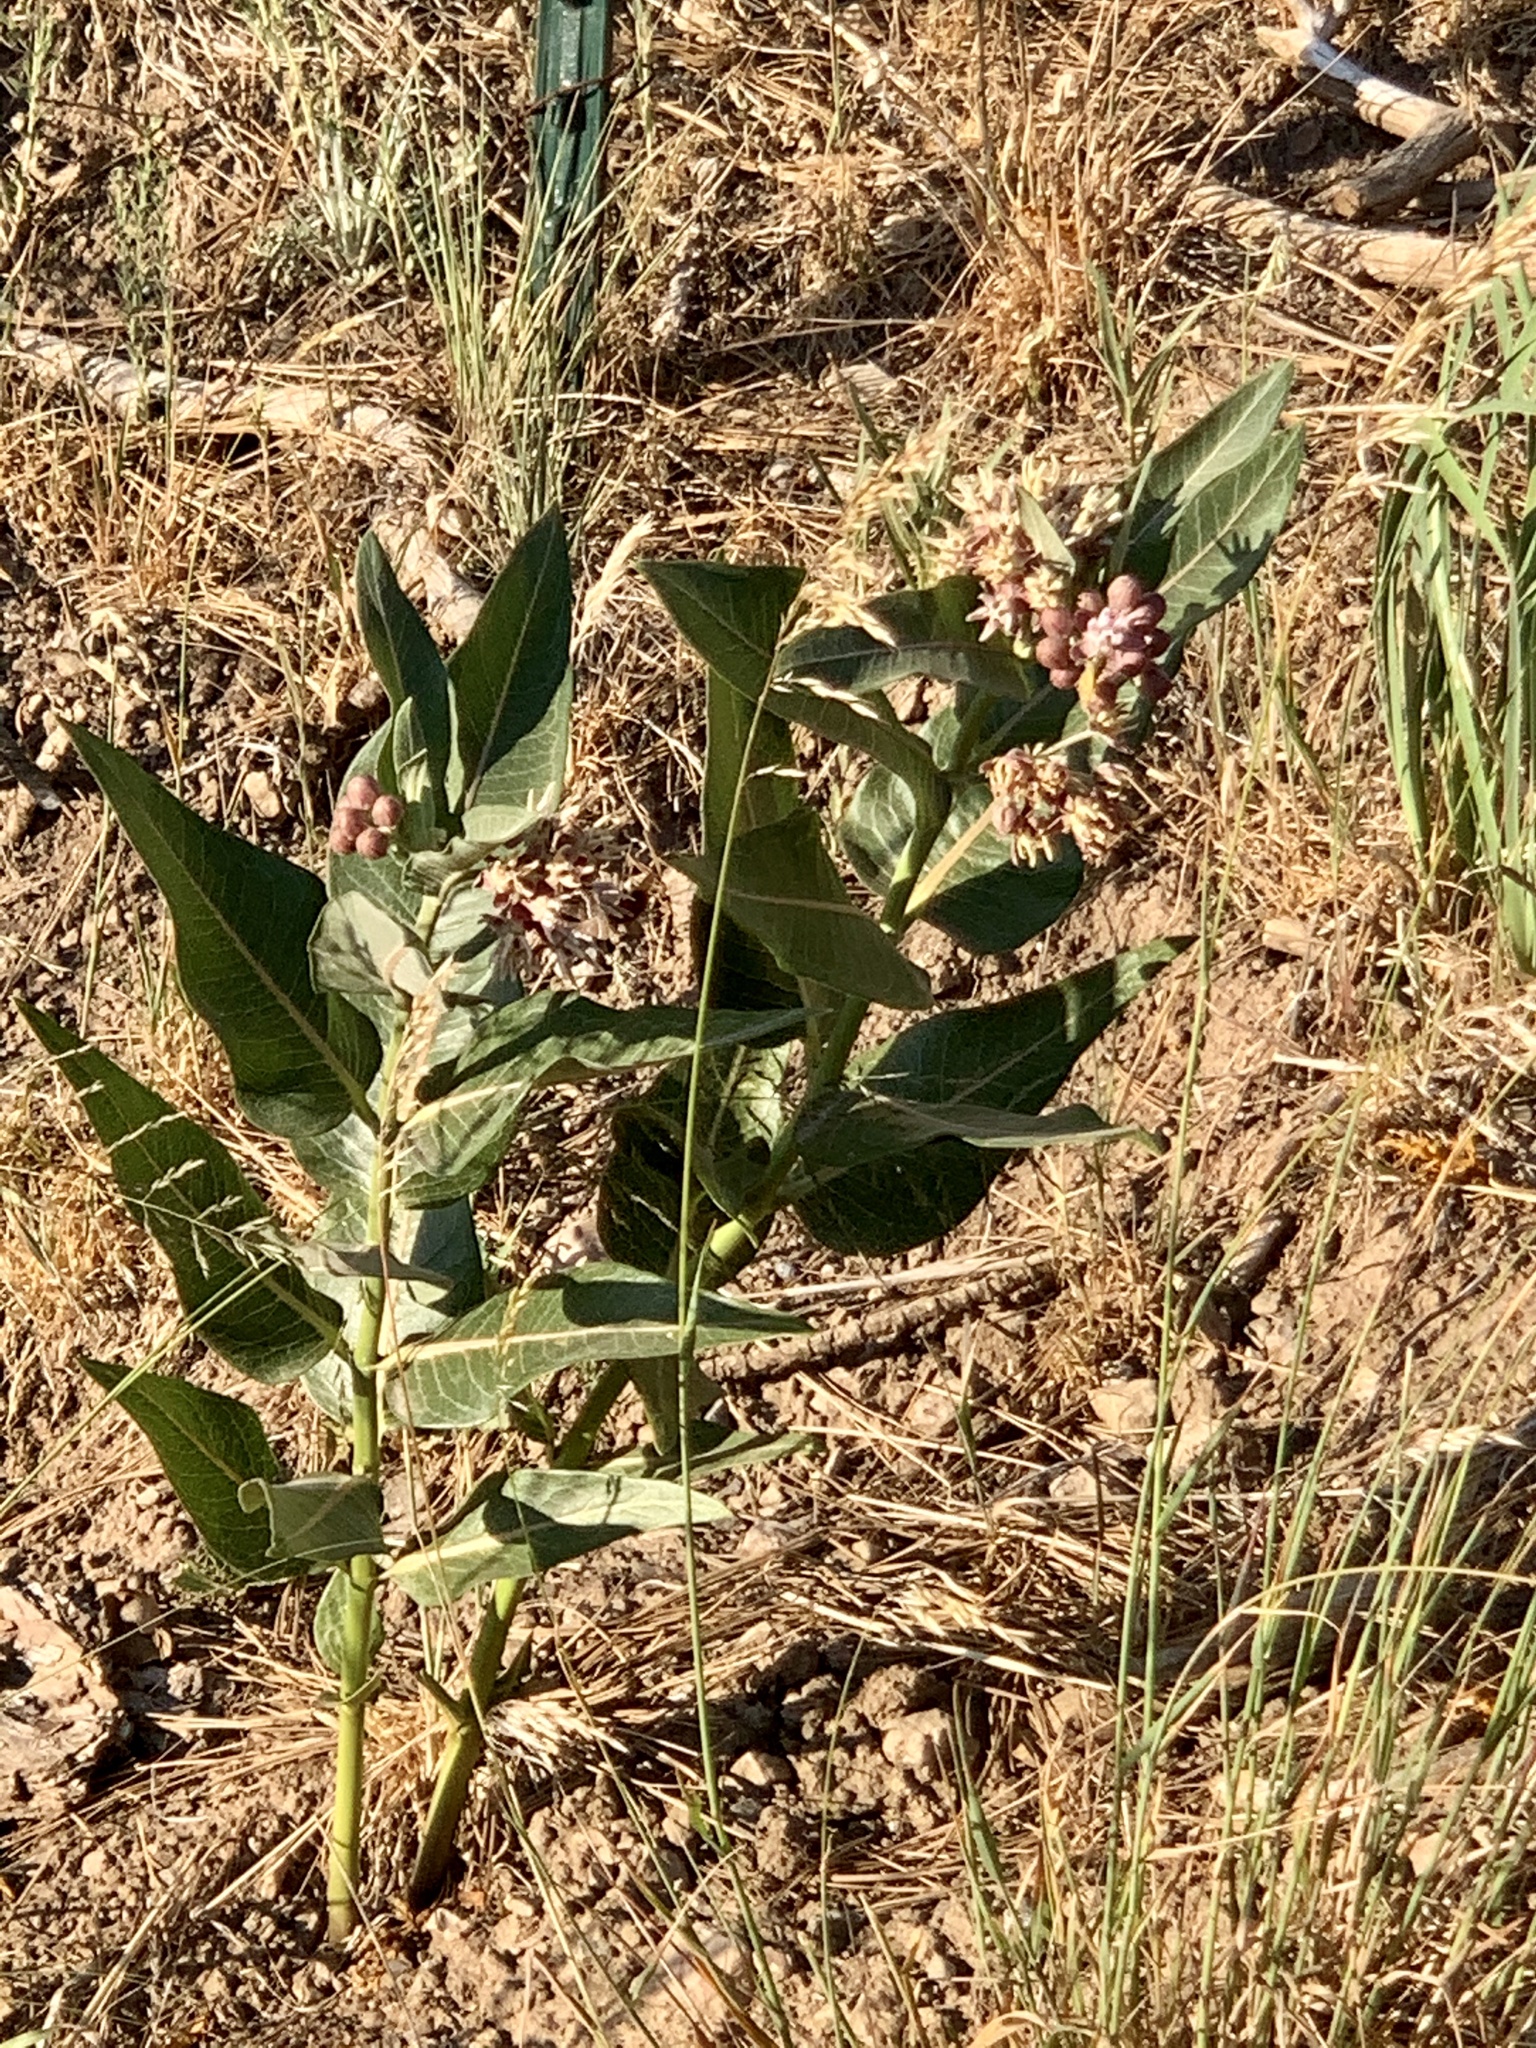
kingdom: Plantae
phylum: Tracheophyta
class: Magnoliopsida
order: Gentianales
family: Apocynaceae
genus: Asclepias
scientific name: Asclepias speciosa
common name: Showy milkweed
